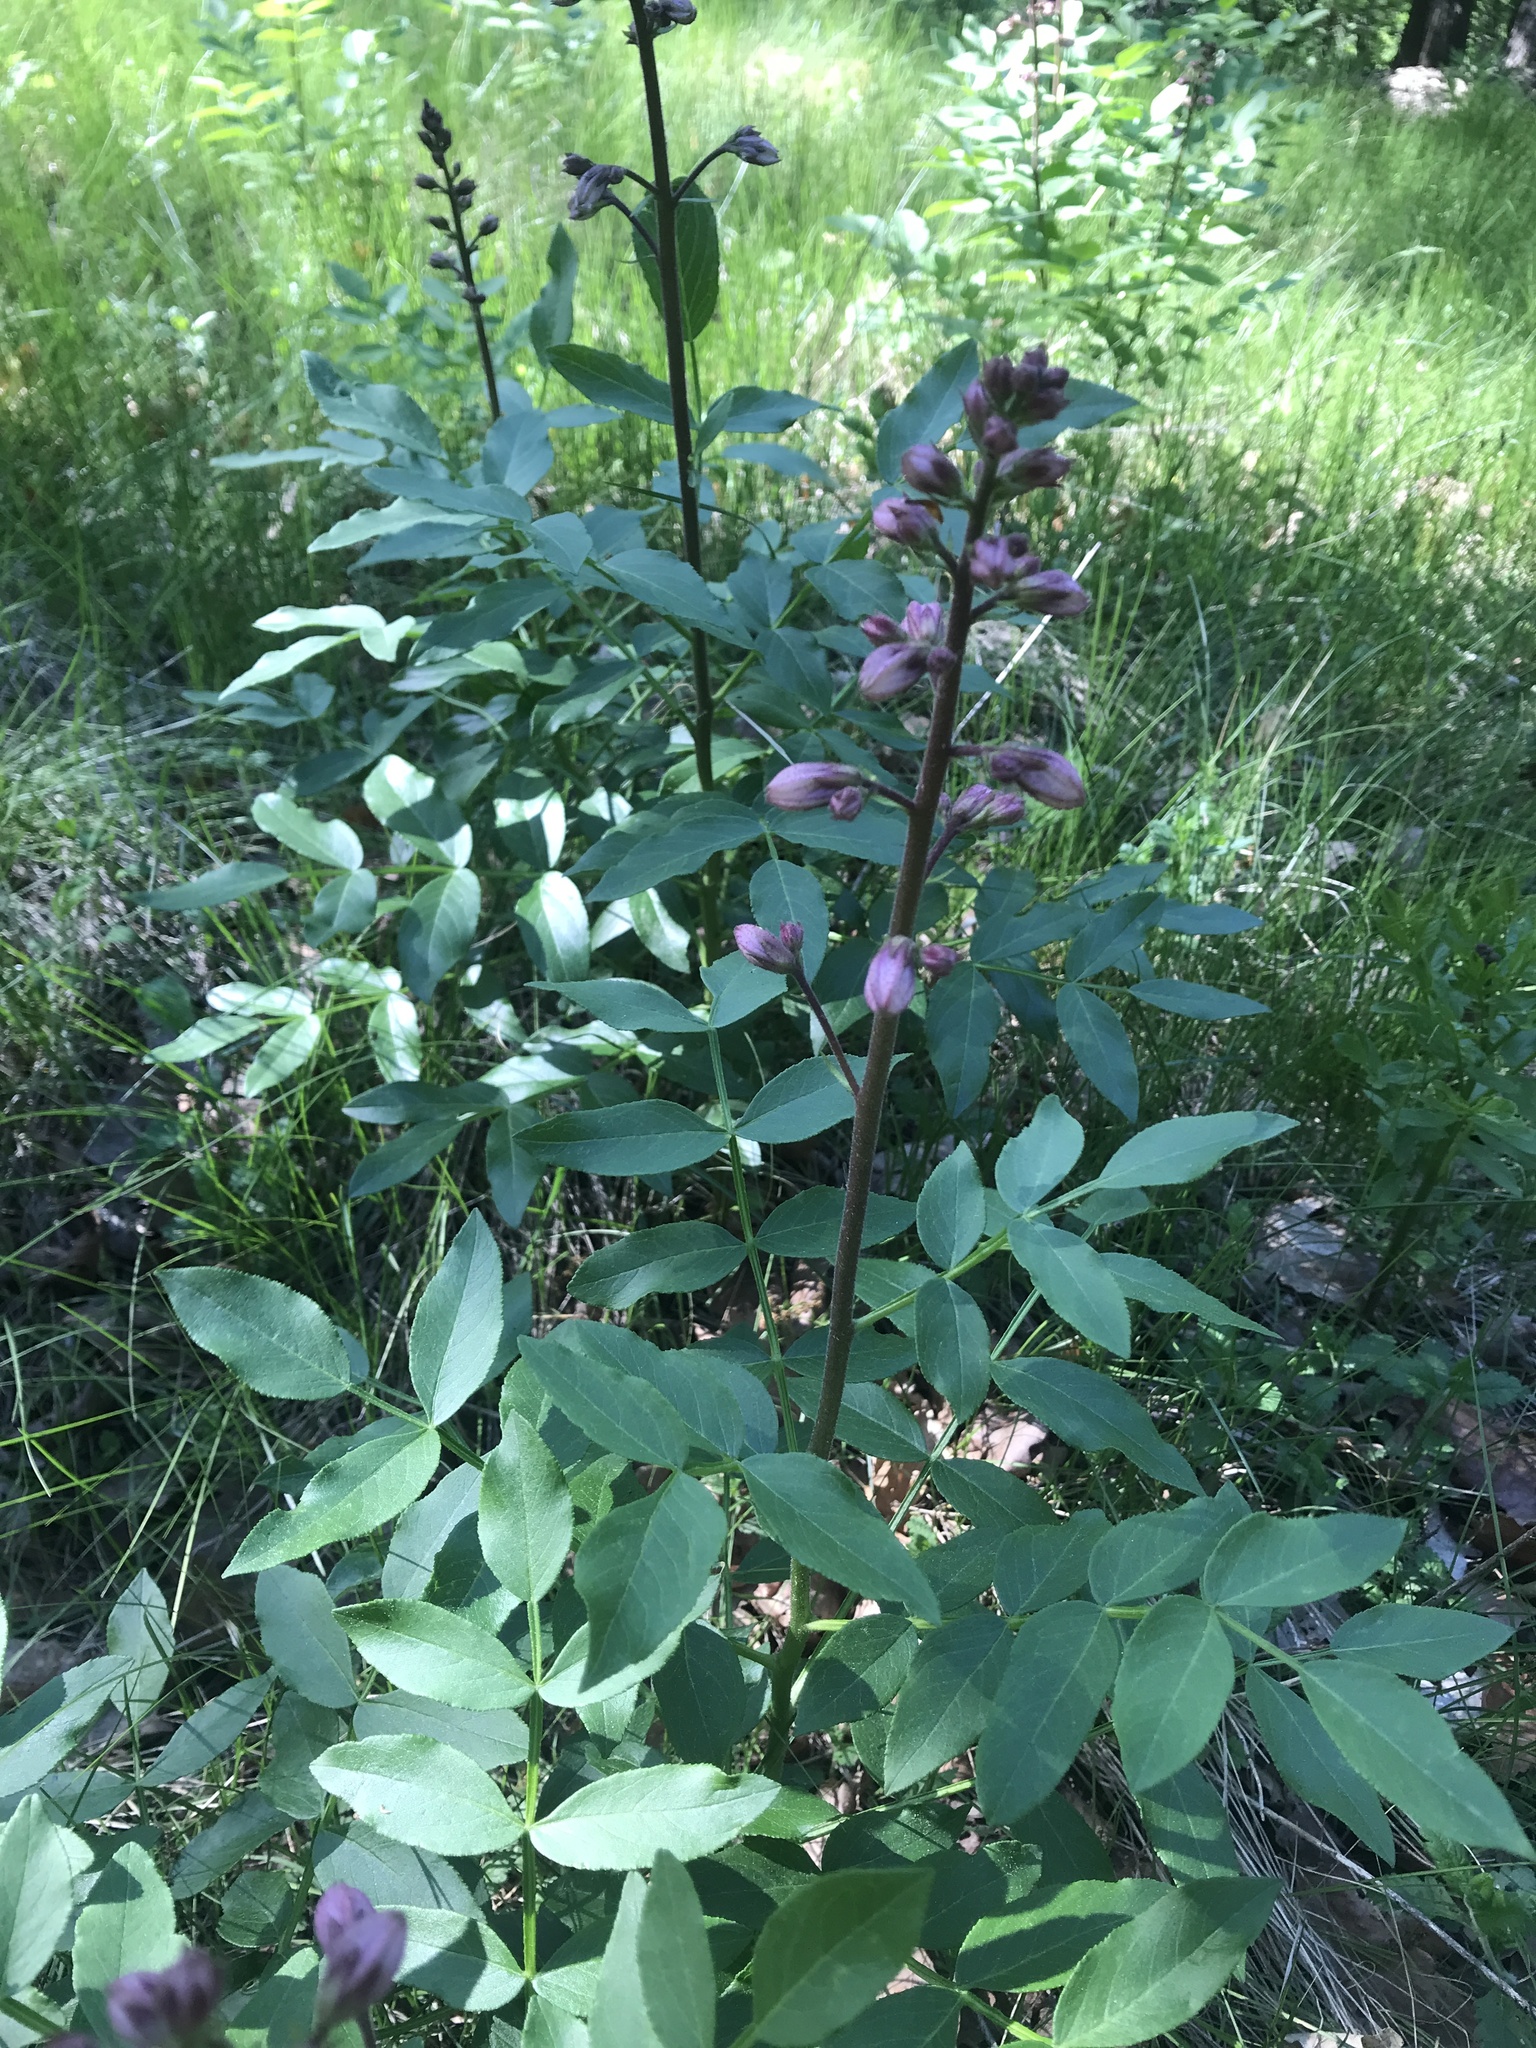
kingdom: Plantae
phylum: Tracheophyta
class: Magnoliopsida
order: Sapindales
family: Rutaceae
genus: Dictamnus
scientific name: Dictamnus albus
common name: Gasplant
